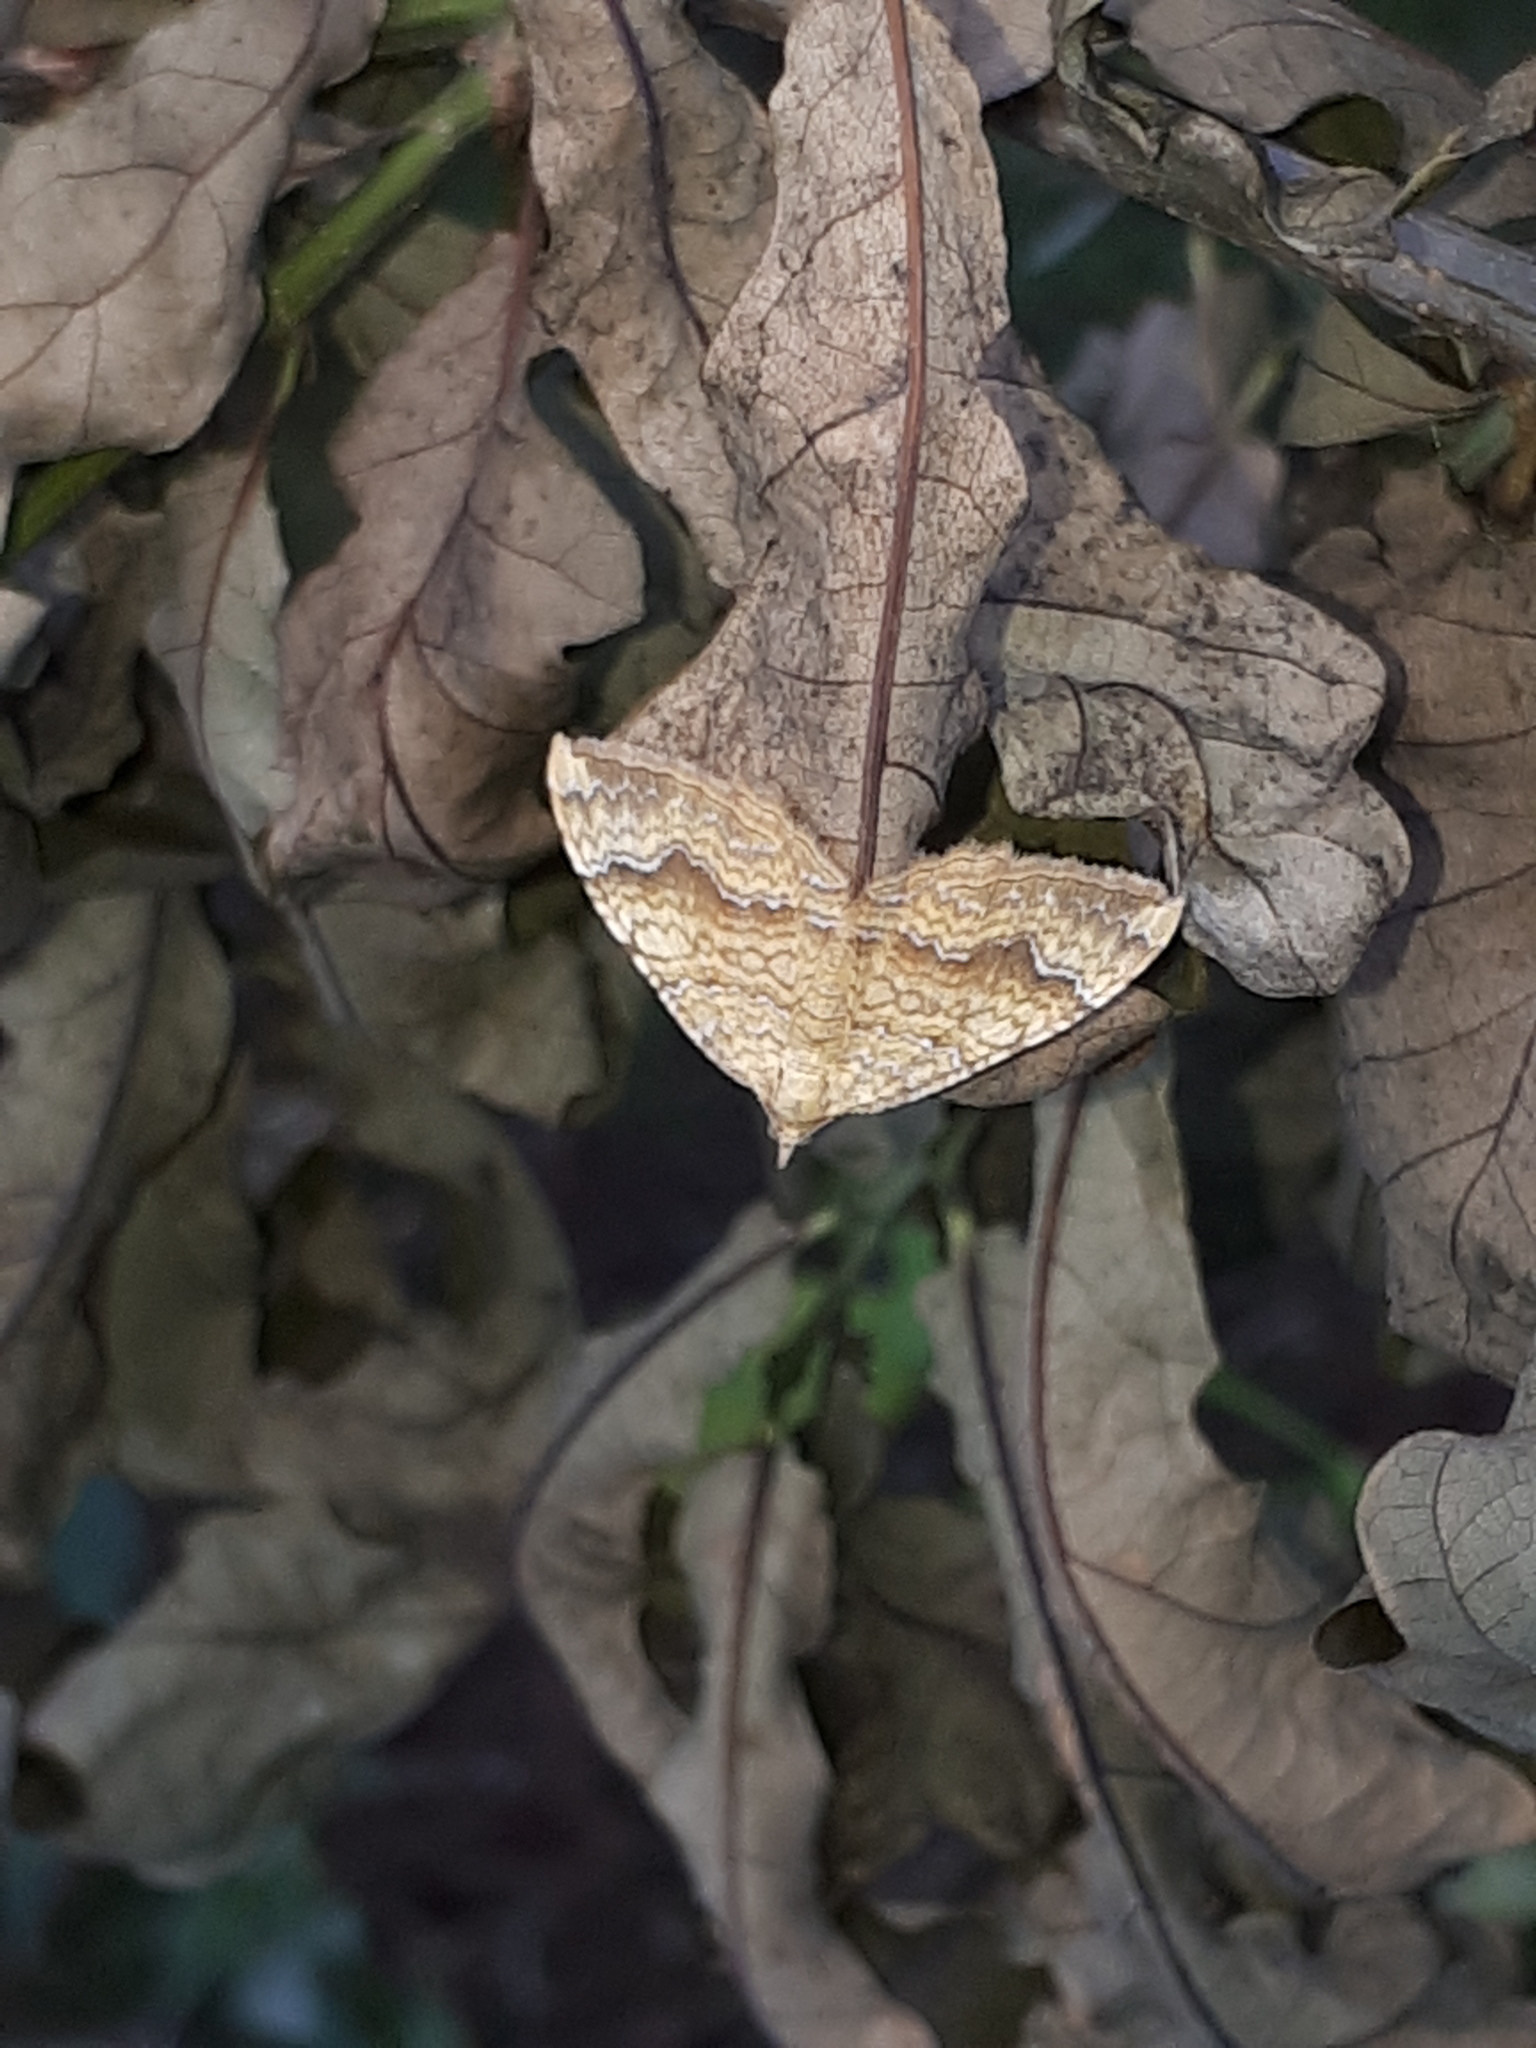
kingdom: Animalia
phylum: Arthropoda
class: Insecta
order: Lepidoptera
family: Geometridae
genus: Camptogramma
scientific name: Camptogramma bilineata
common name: Yellow shell
